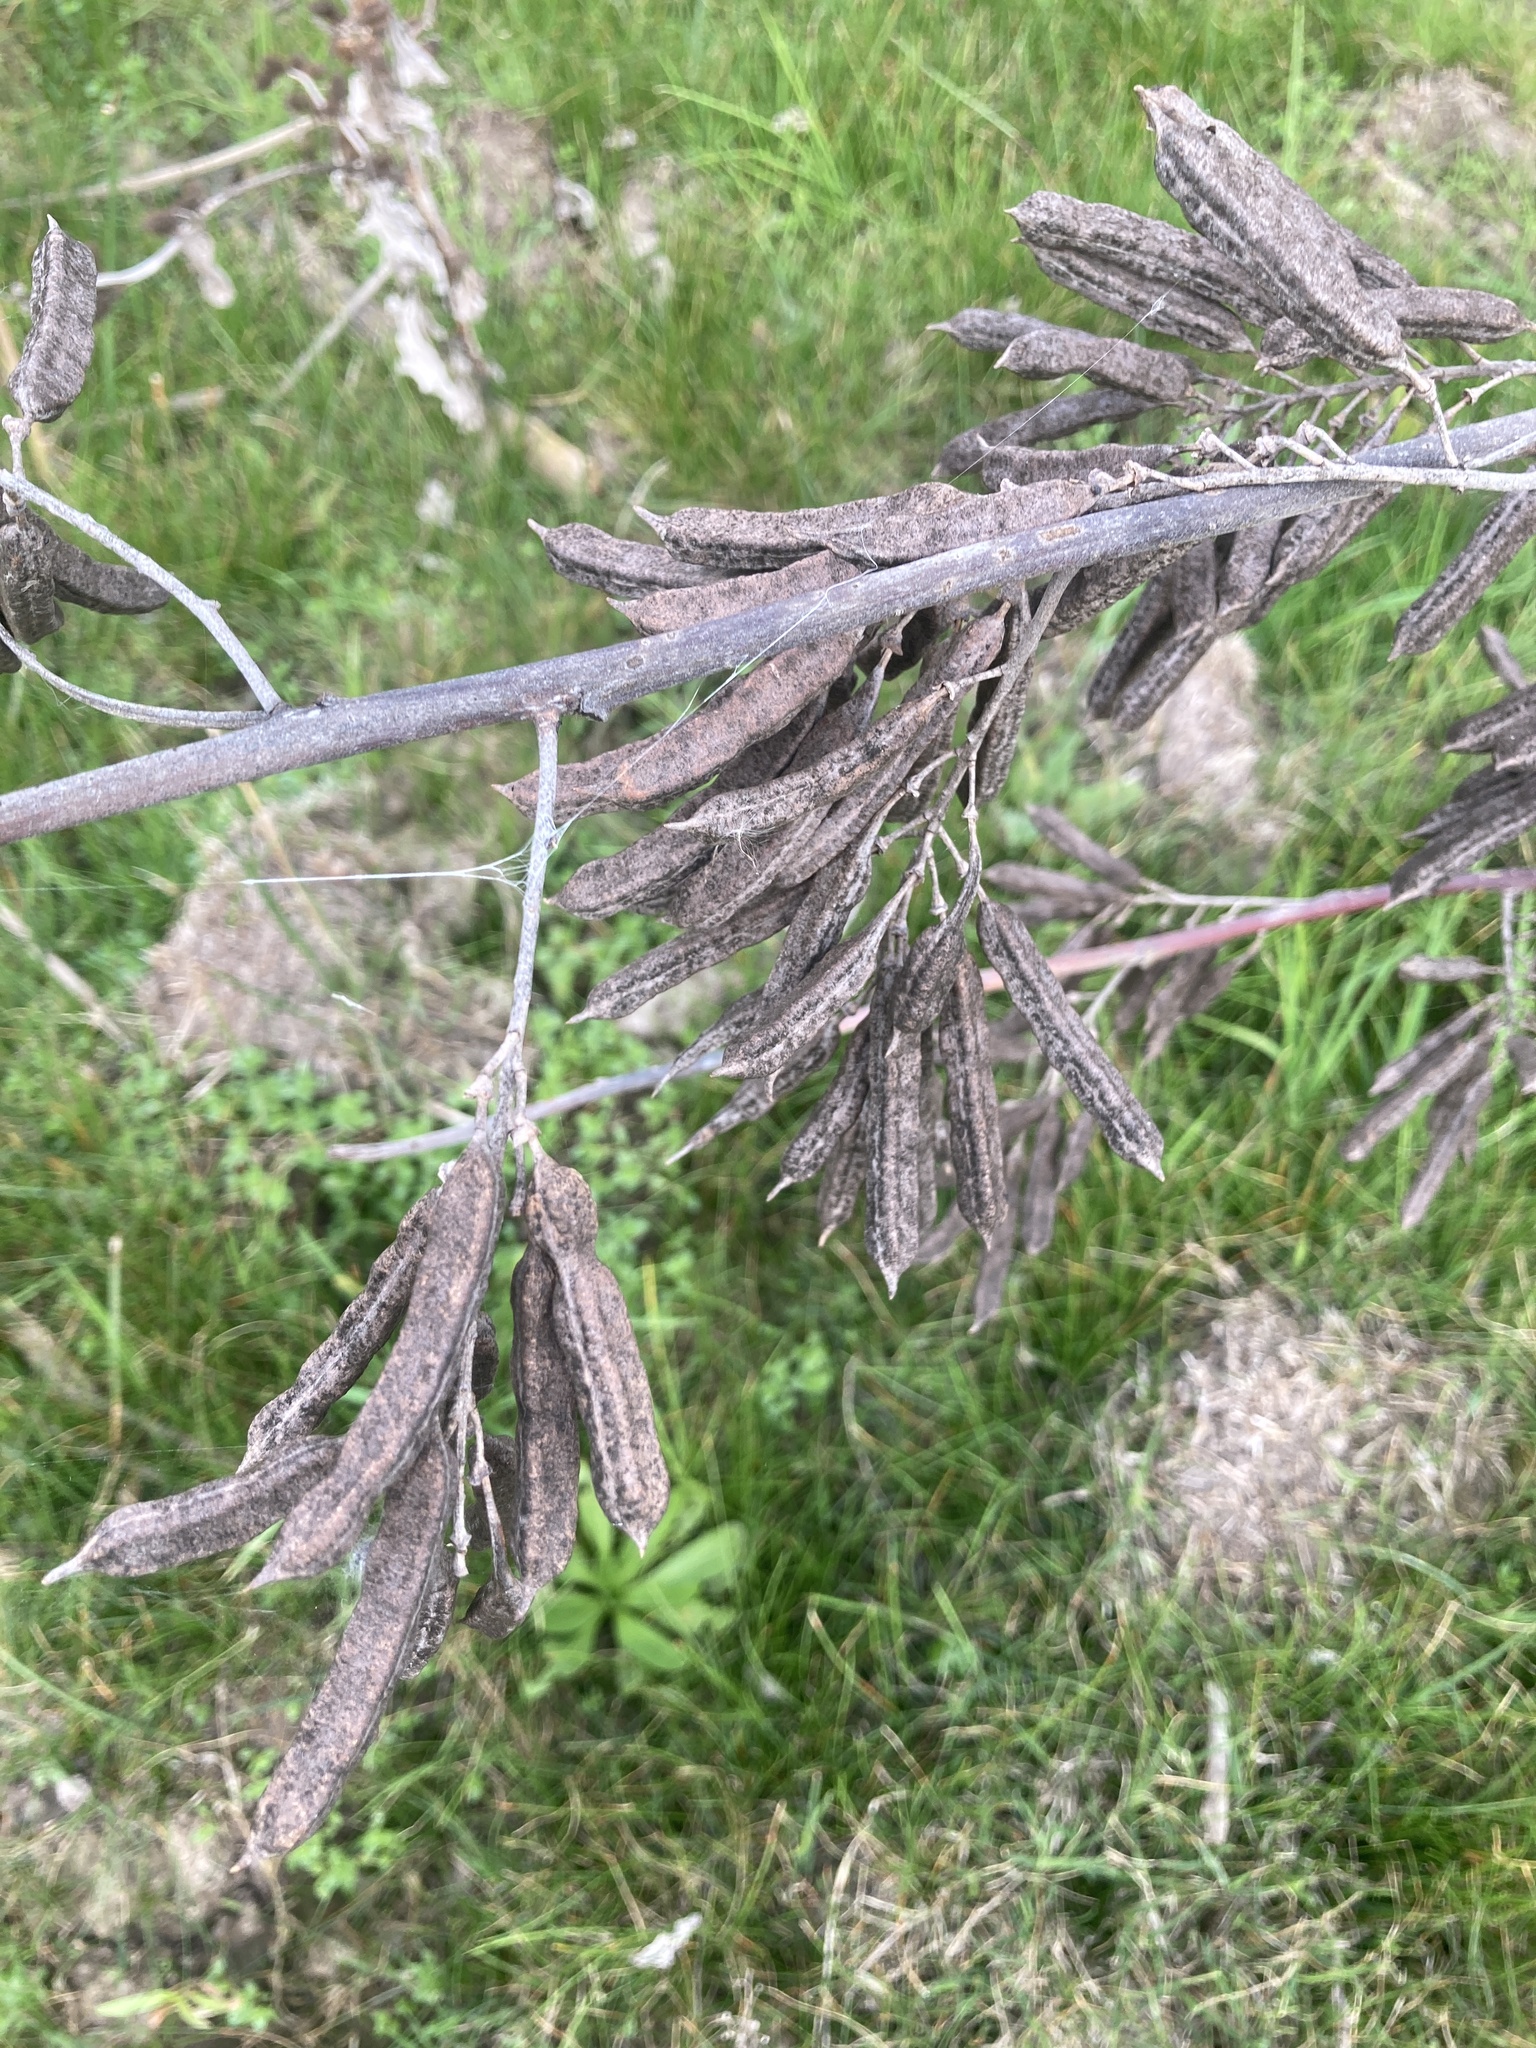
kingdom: Plantae
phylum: Tracheophyta
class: Magnoliopsida
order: Fabales
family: Fabaceae
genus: Sesbania
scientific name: Sesbania virgata
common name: Wand riverhemp
